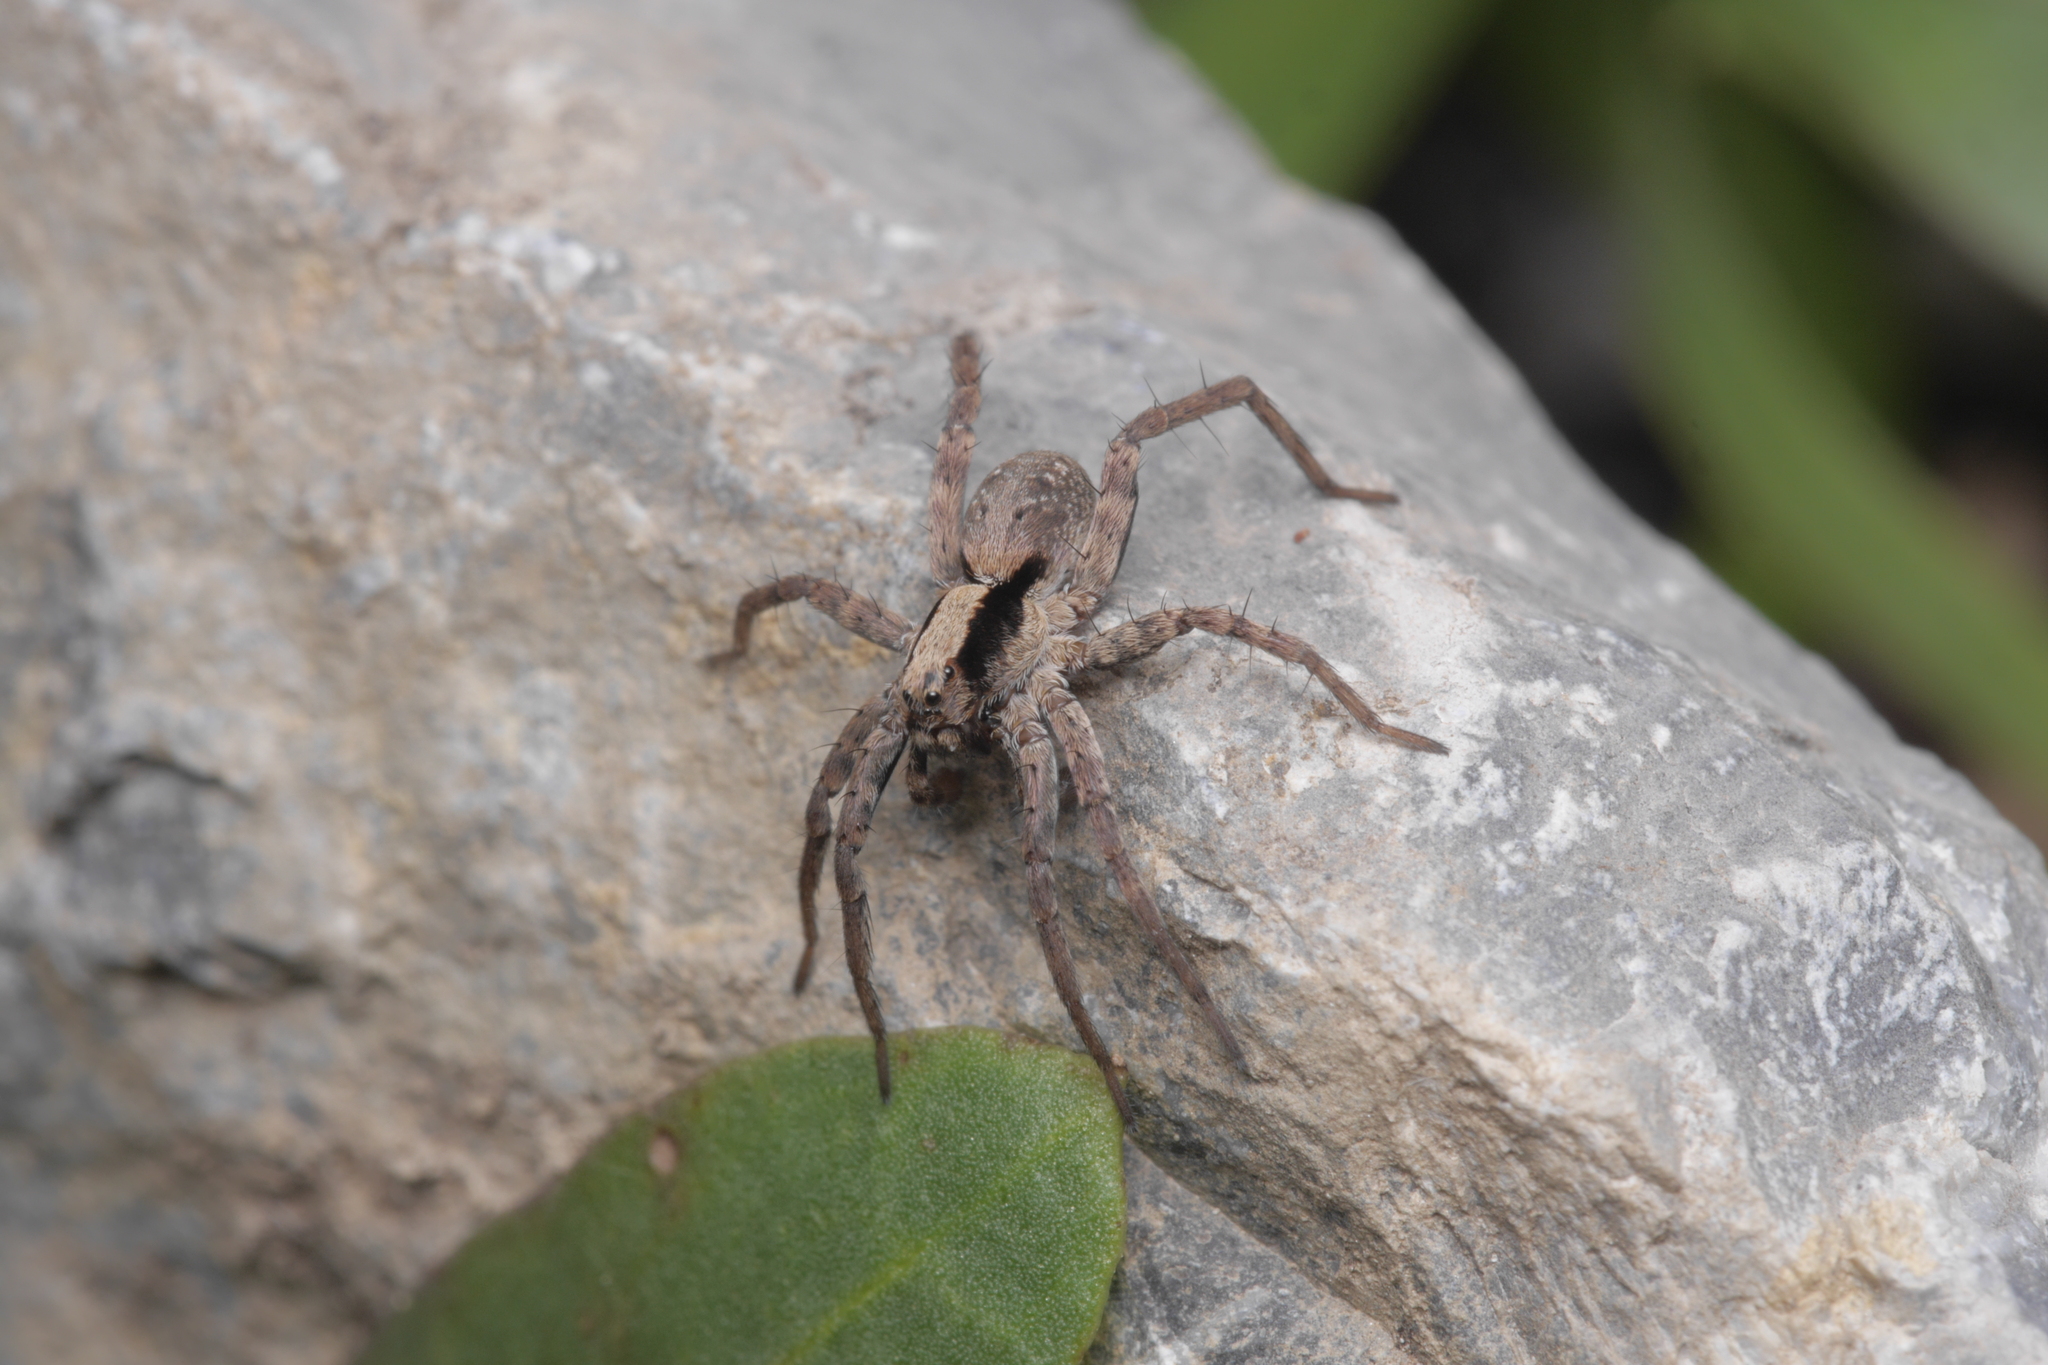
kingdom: Animalia
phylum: Arthropoda
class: Arachnida
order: Araneae
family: Lycosidae
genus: Xerolycosa
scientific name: Xerolycosa nemoralis
